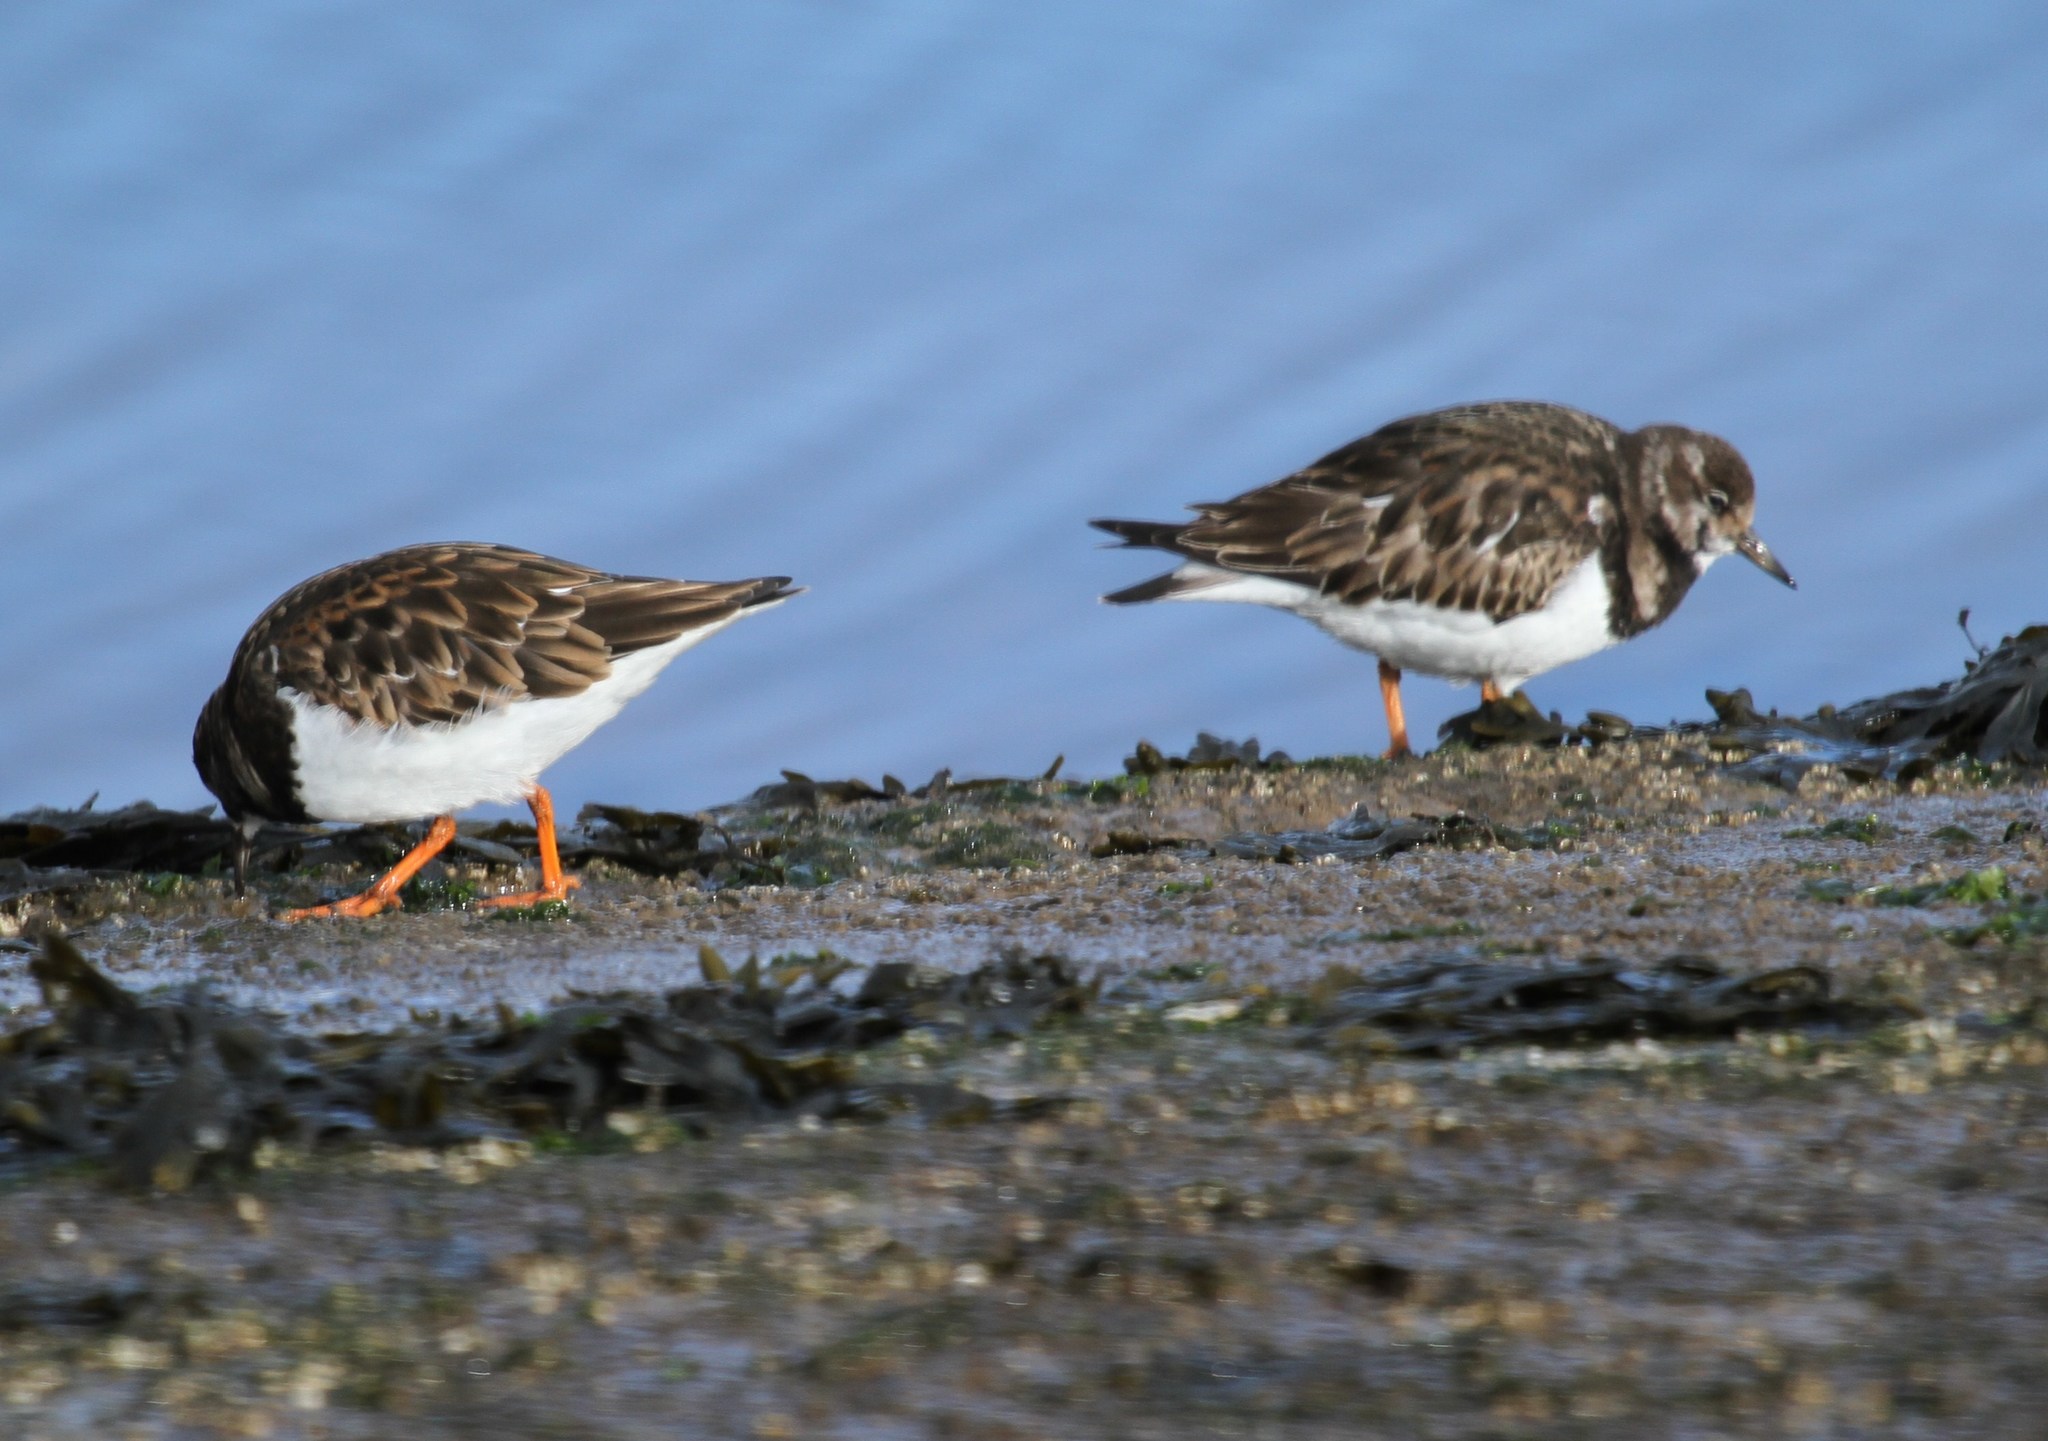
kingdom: Animalia
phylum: Chordata
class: Aves
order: Charadriiformes
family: Scolopacidae
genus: Arenaria
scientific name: Arenaria interpres
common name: Ruddy turnstone
